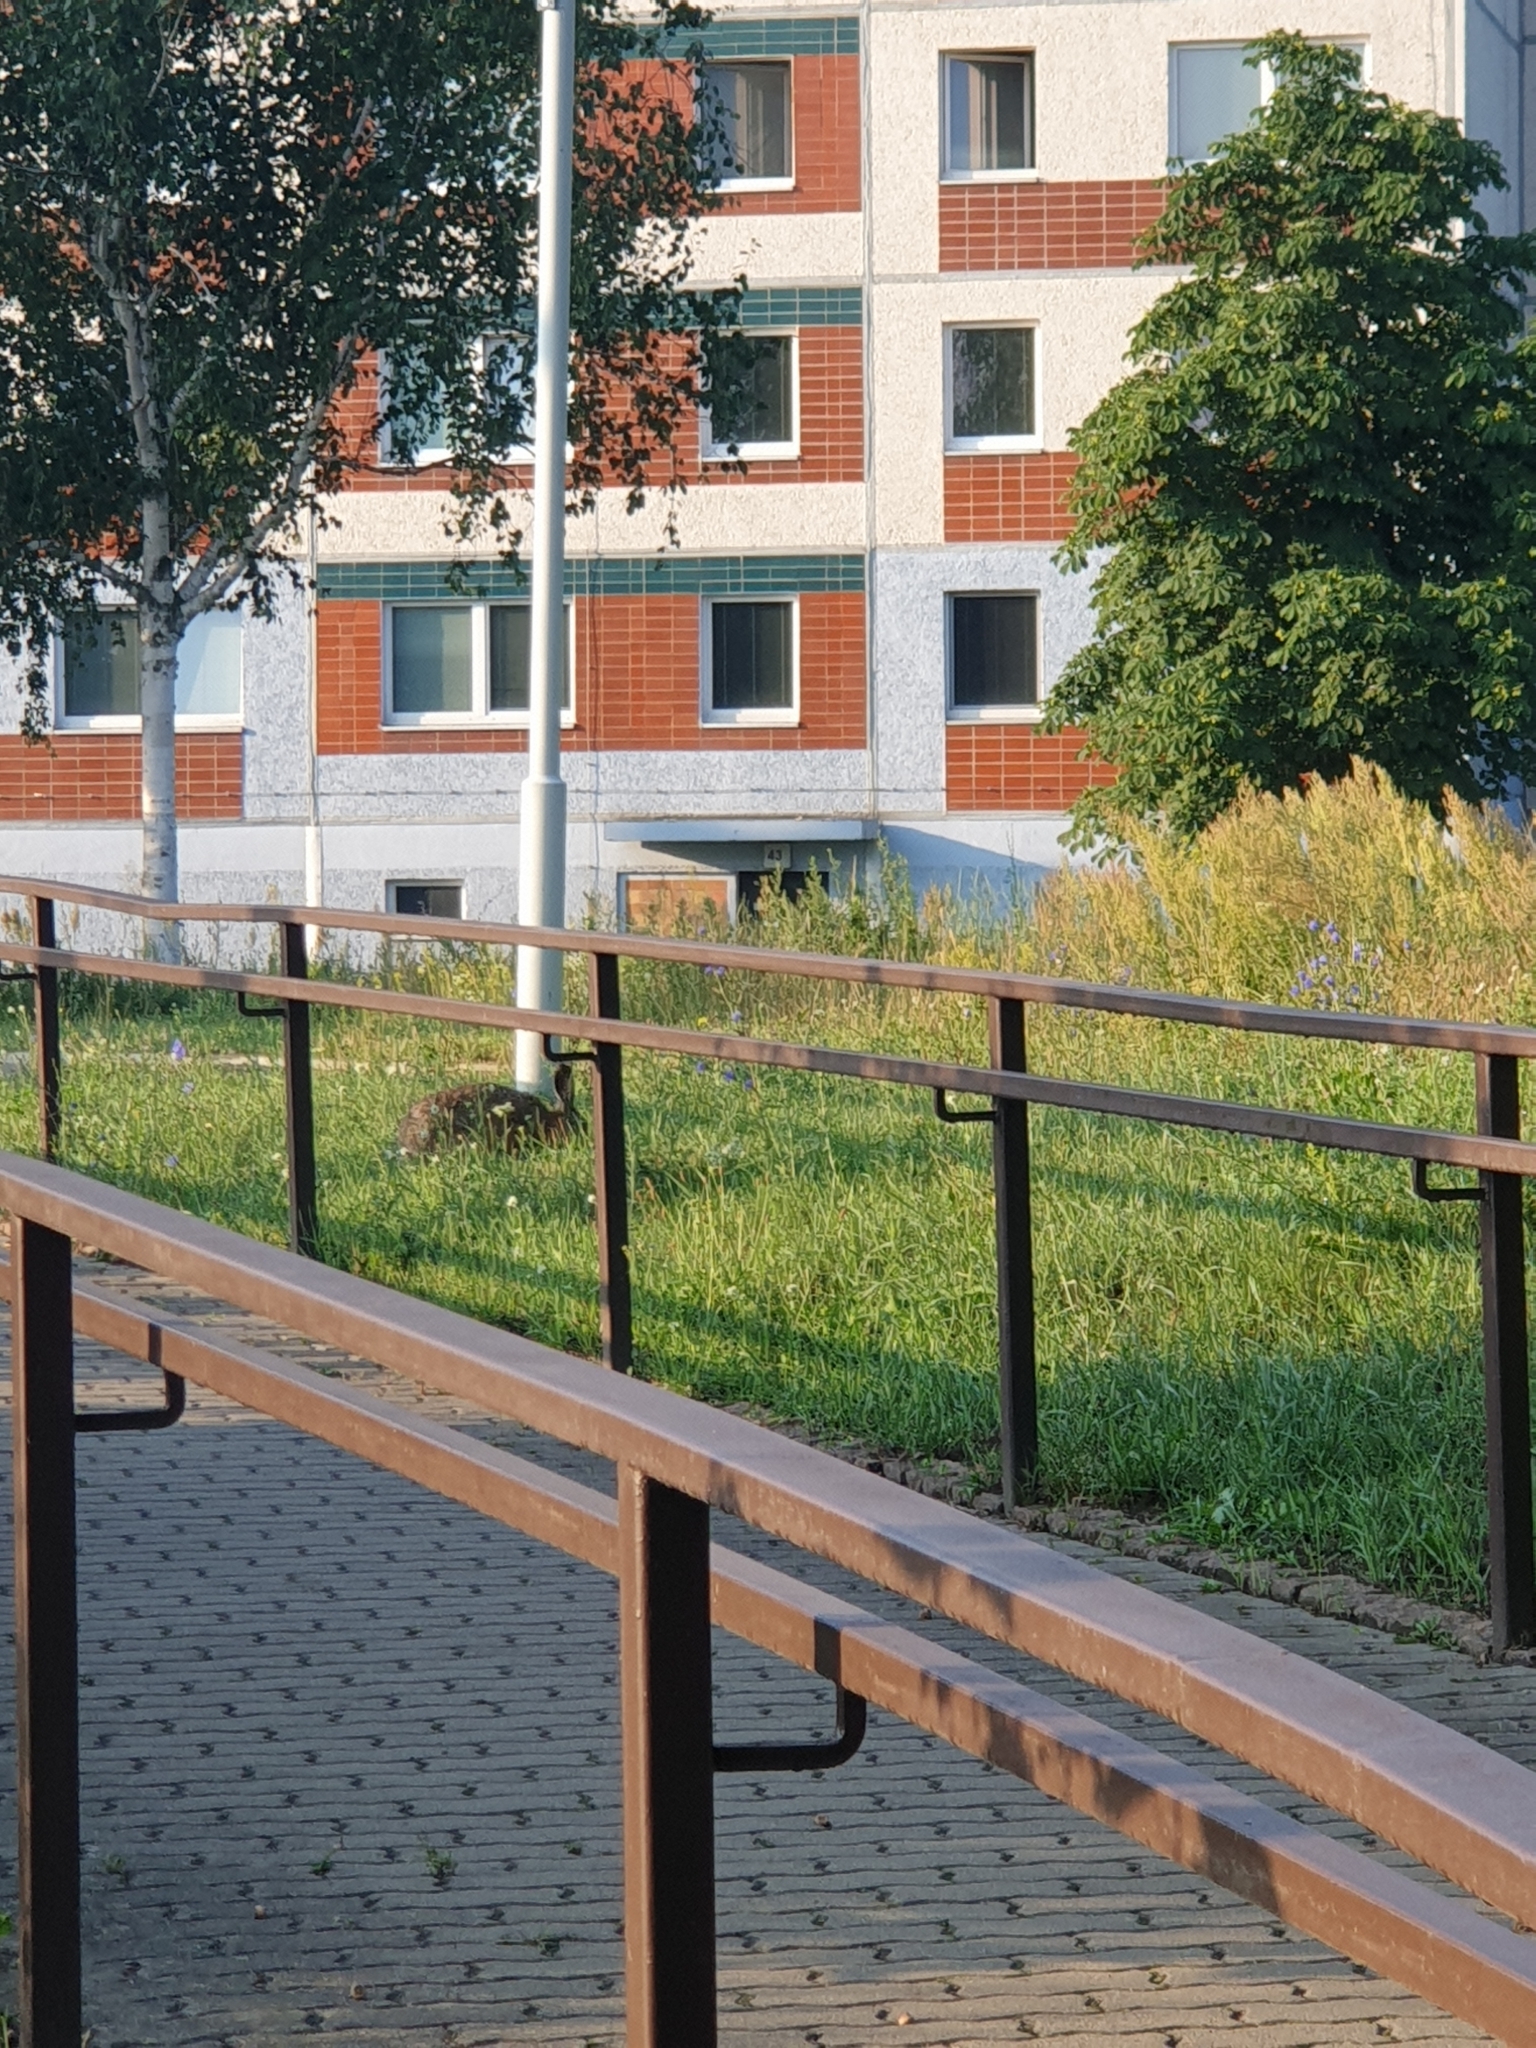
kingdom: Animalia
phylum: Chordata
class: Mammalia
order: Lagomorpha
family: Leporidae
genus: Lepus
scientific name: Lepus europaeus
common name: European hare
